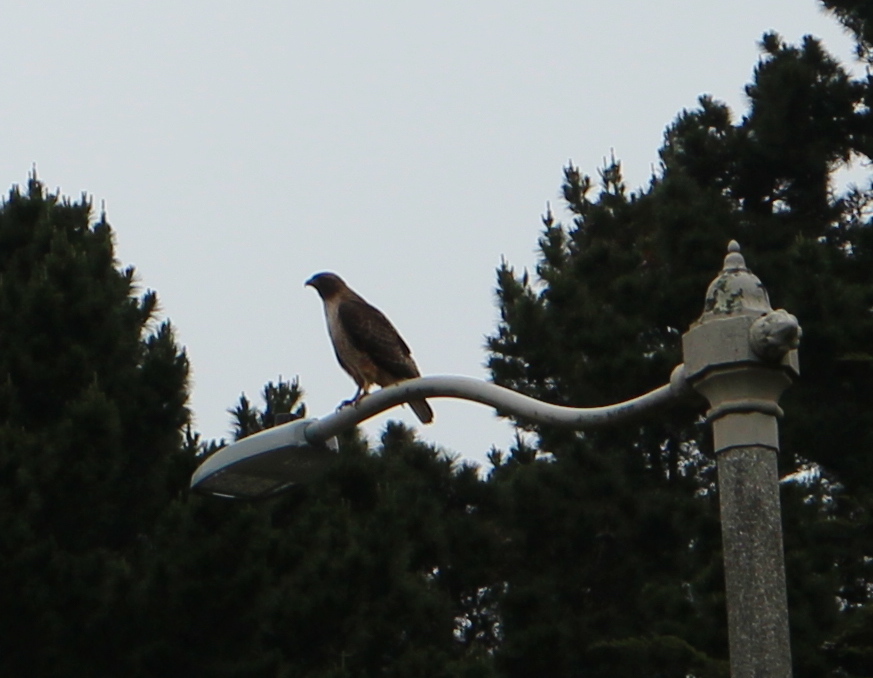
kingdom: Animalia
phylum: Chordata
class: Aves
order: Accipitriformes
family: Accipitridae
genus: Buteo
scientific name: Buteo jamaicensis
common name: Red-tailed hawk
